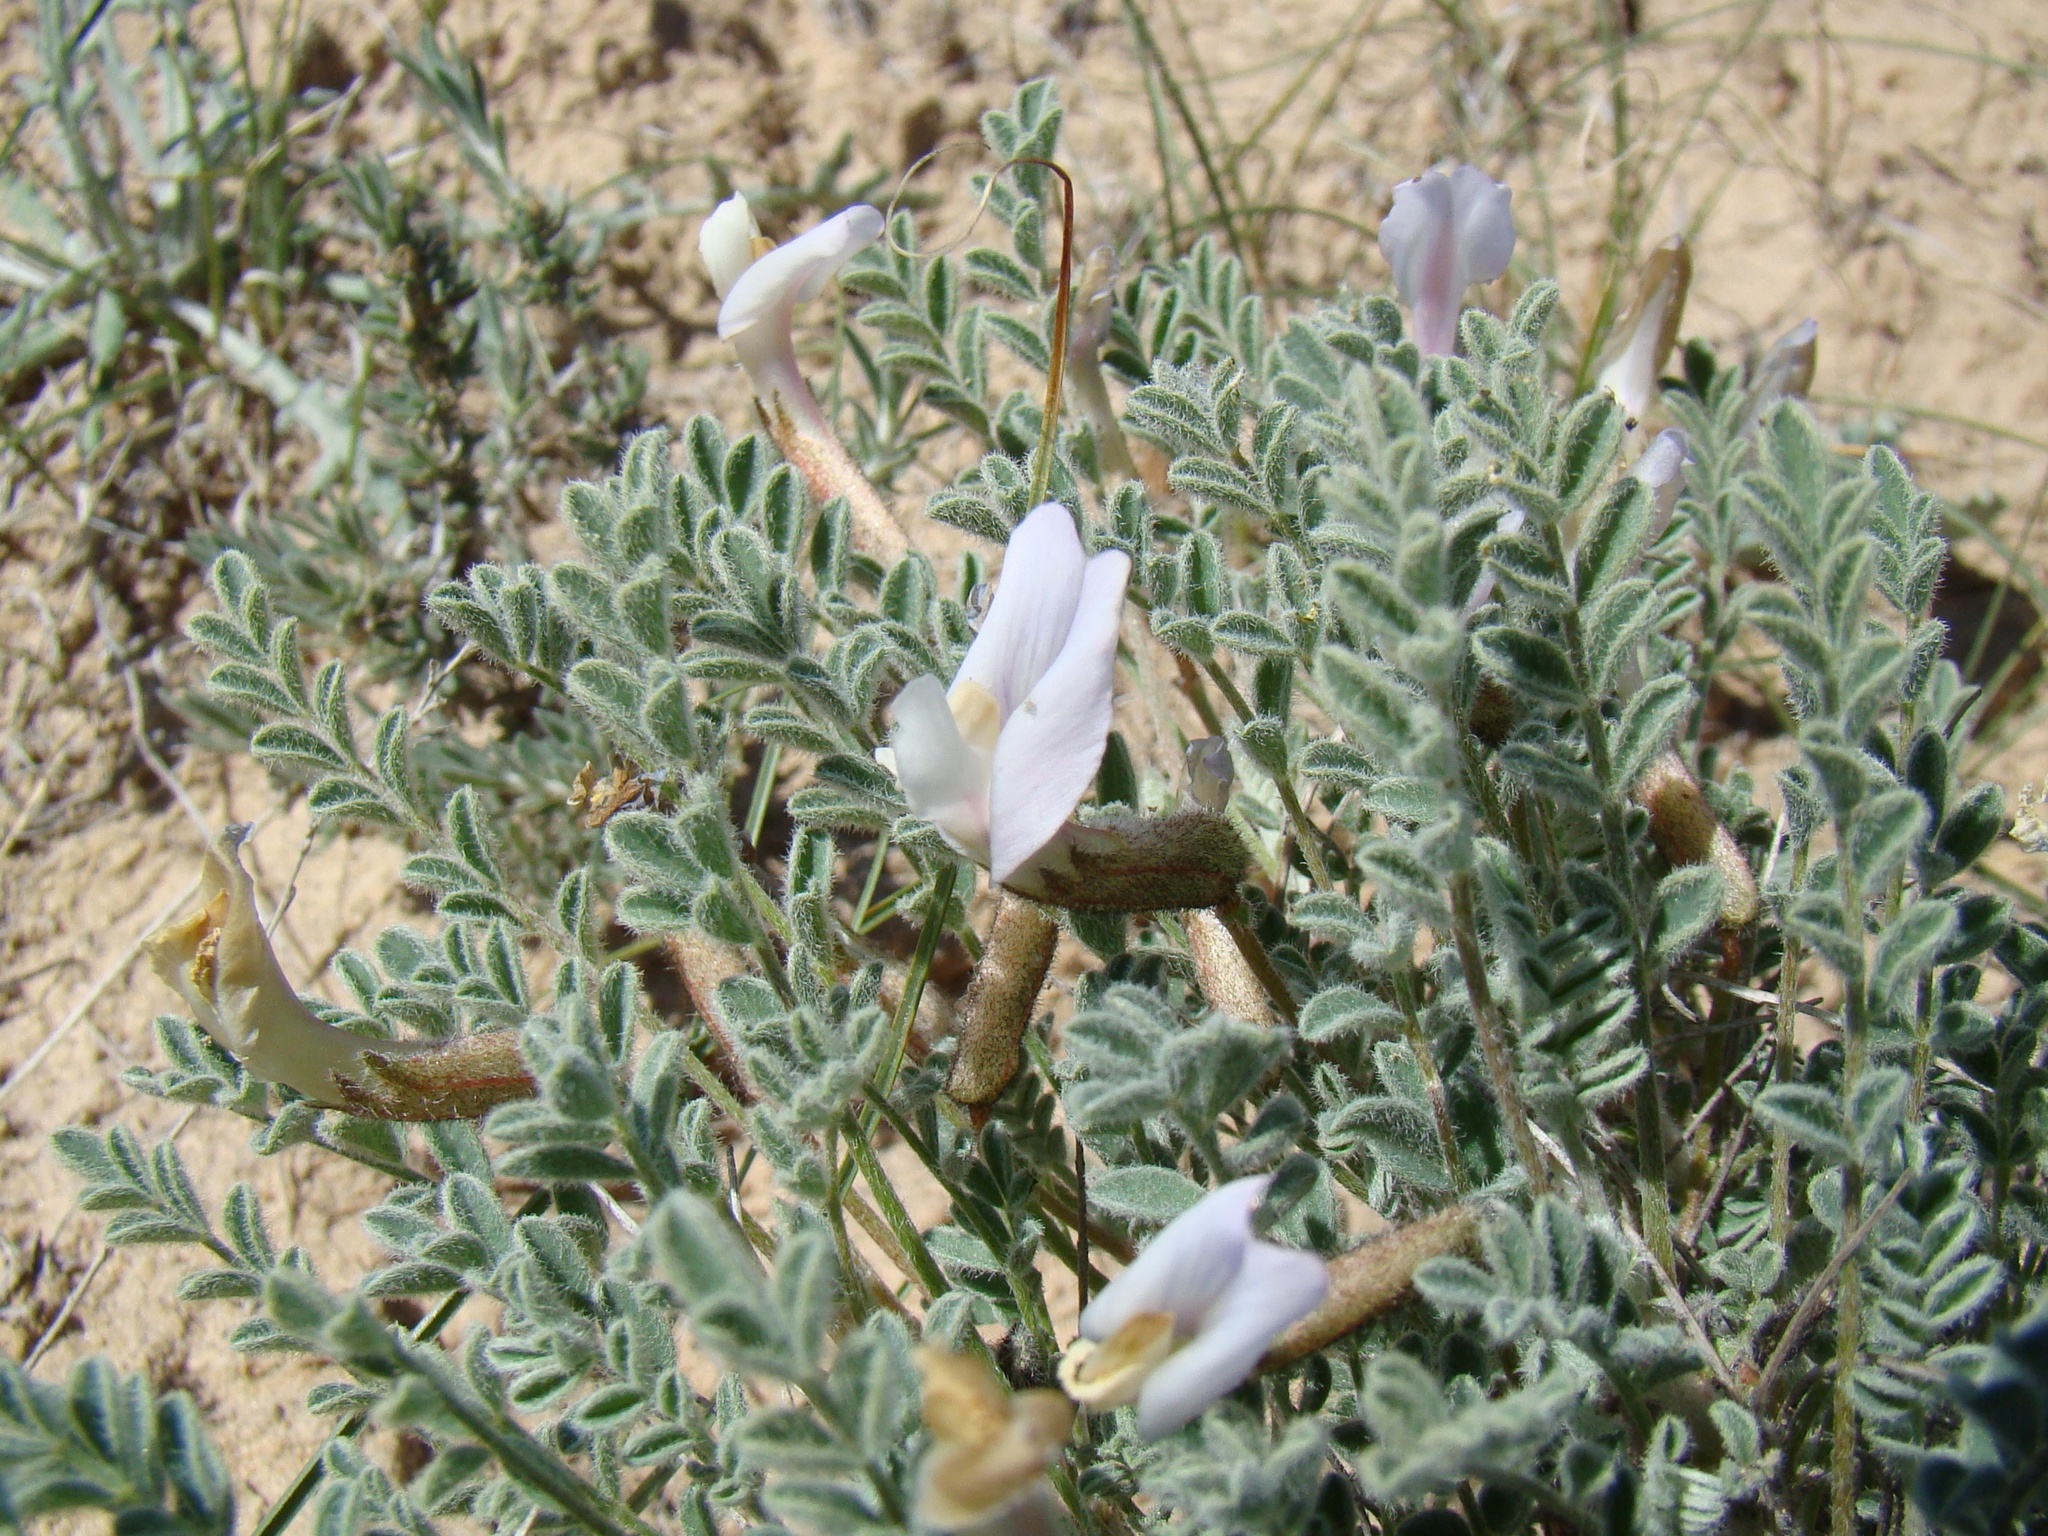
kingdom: Plantae
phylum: Tracheophyta
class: Magnoliopsida
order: Fabales
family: Fabaceae
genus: Astragalus
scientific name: Astragalus pallasii
